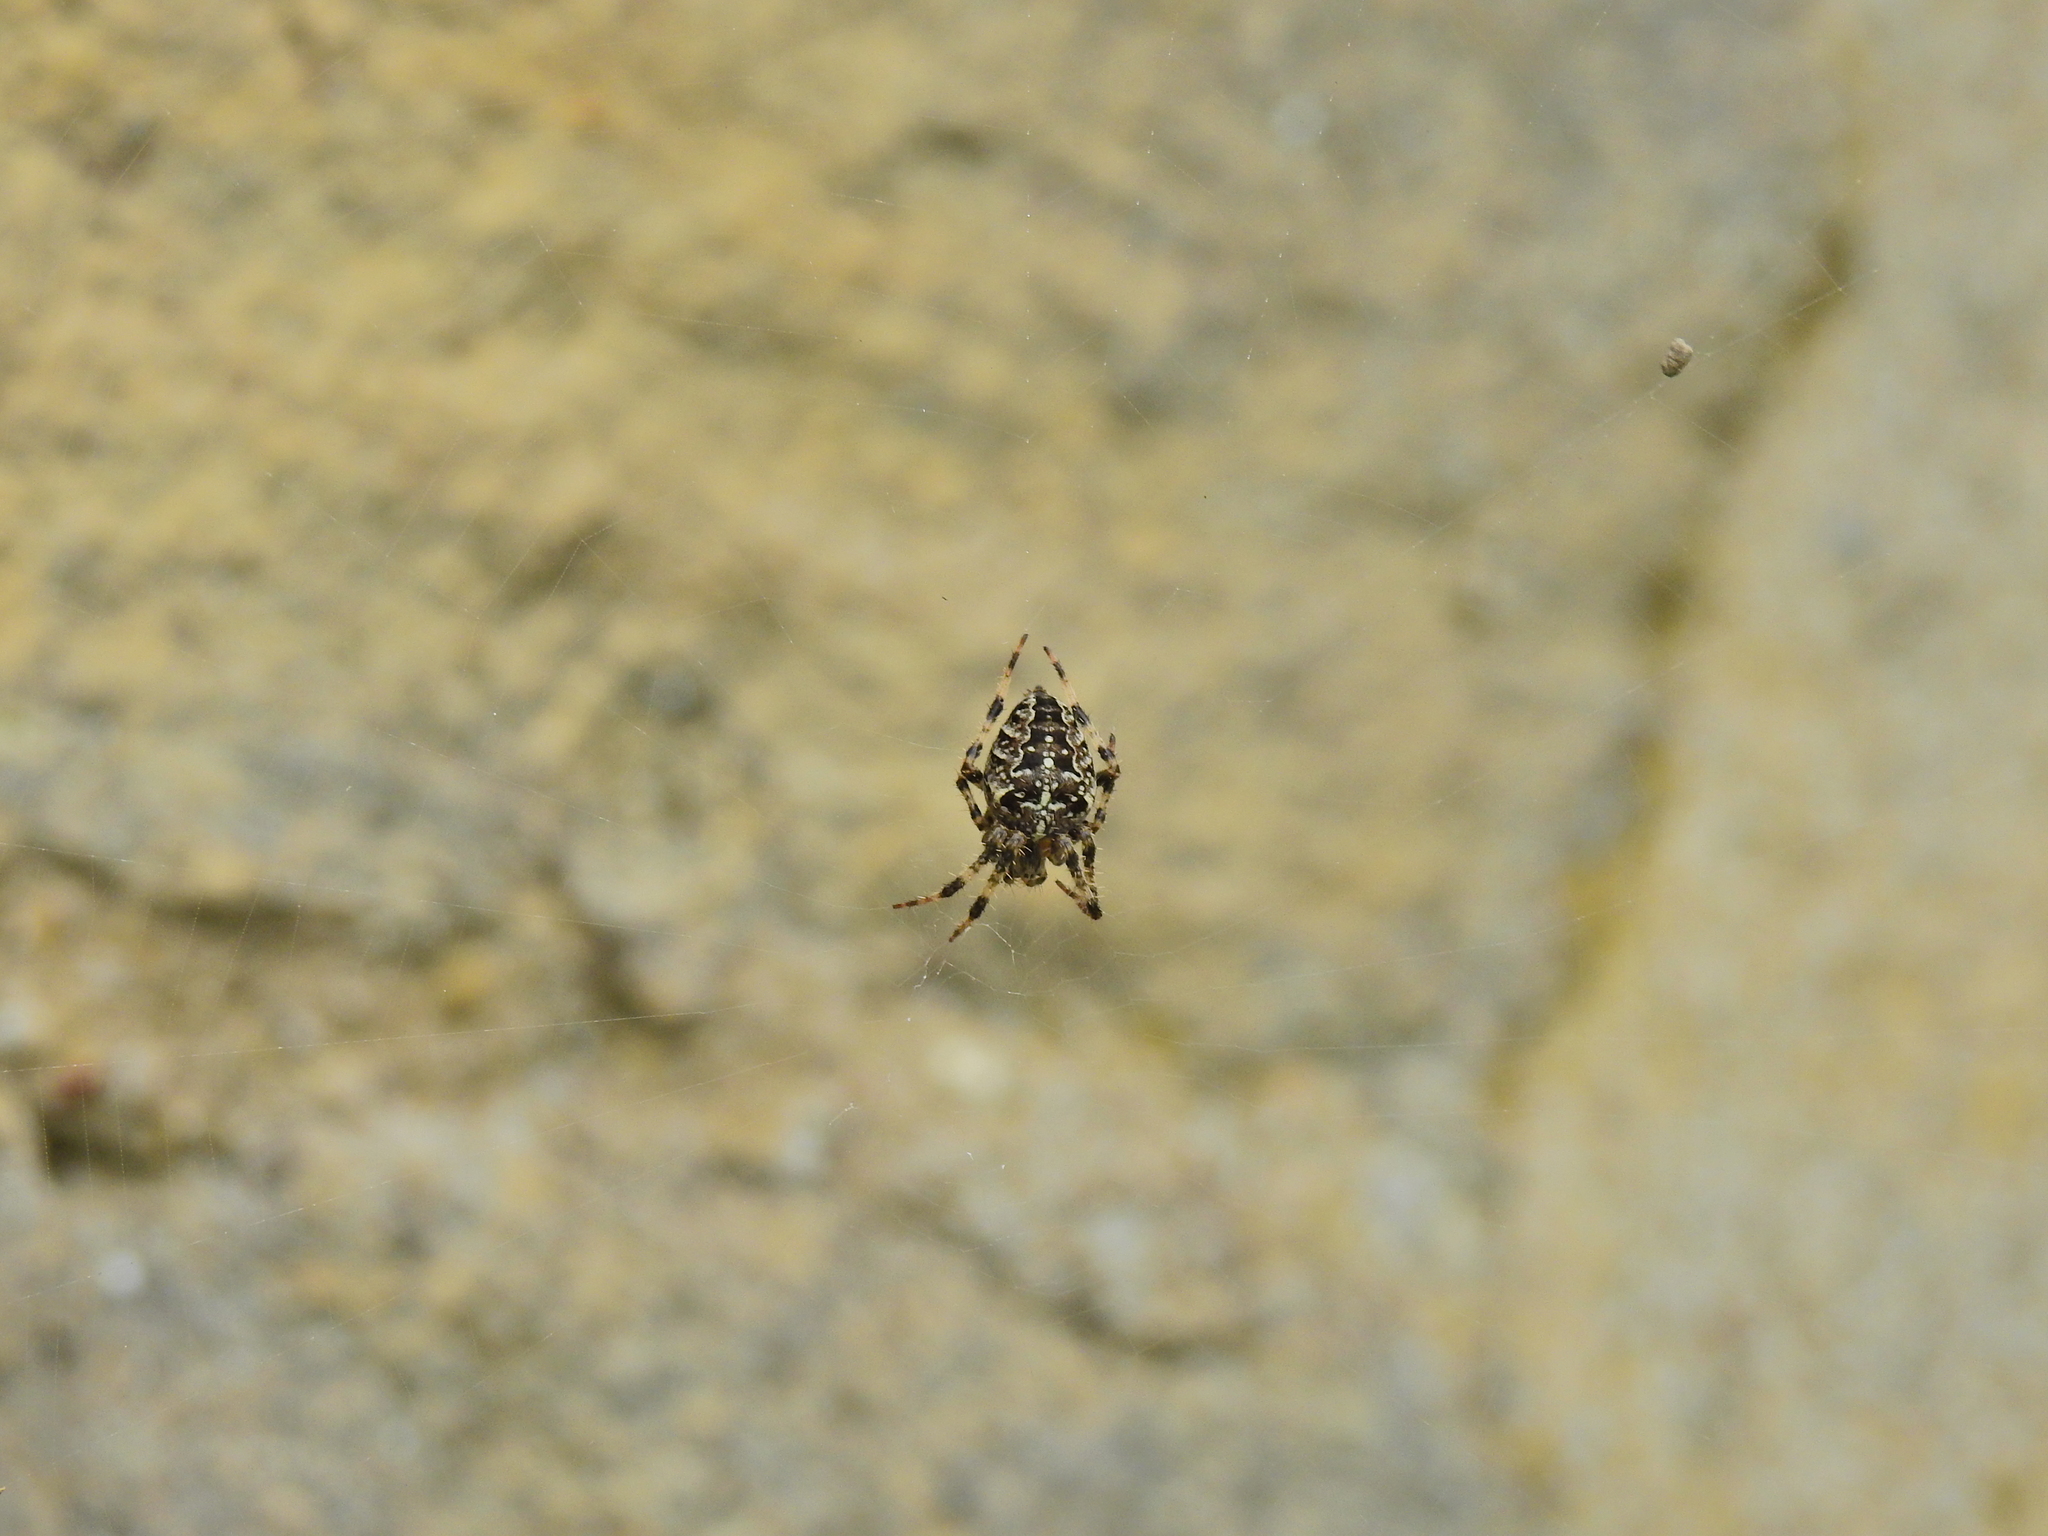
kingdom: Animalia
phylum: Arthropoda
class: Arachnida
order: Araneae
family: Araneidae
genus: Araneus
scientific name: Araneus diadematus
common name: Cross orbweaver
